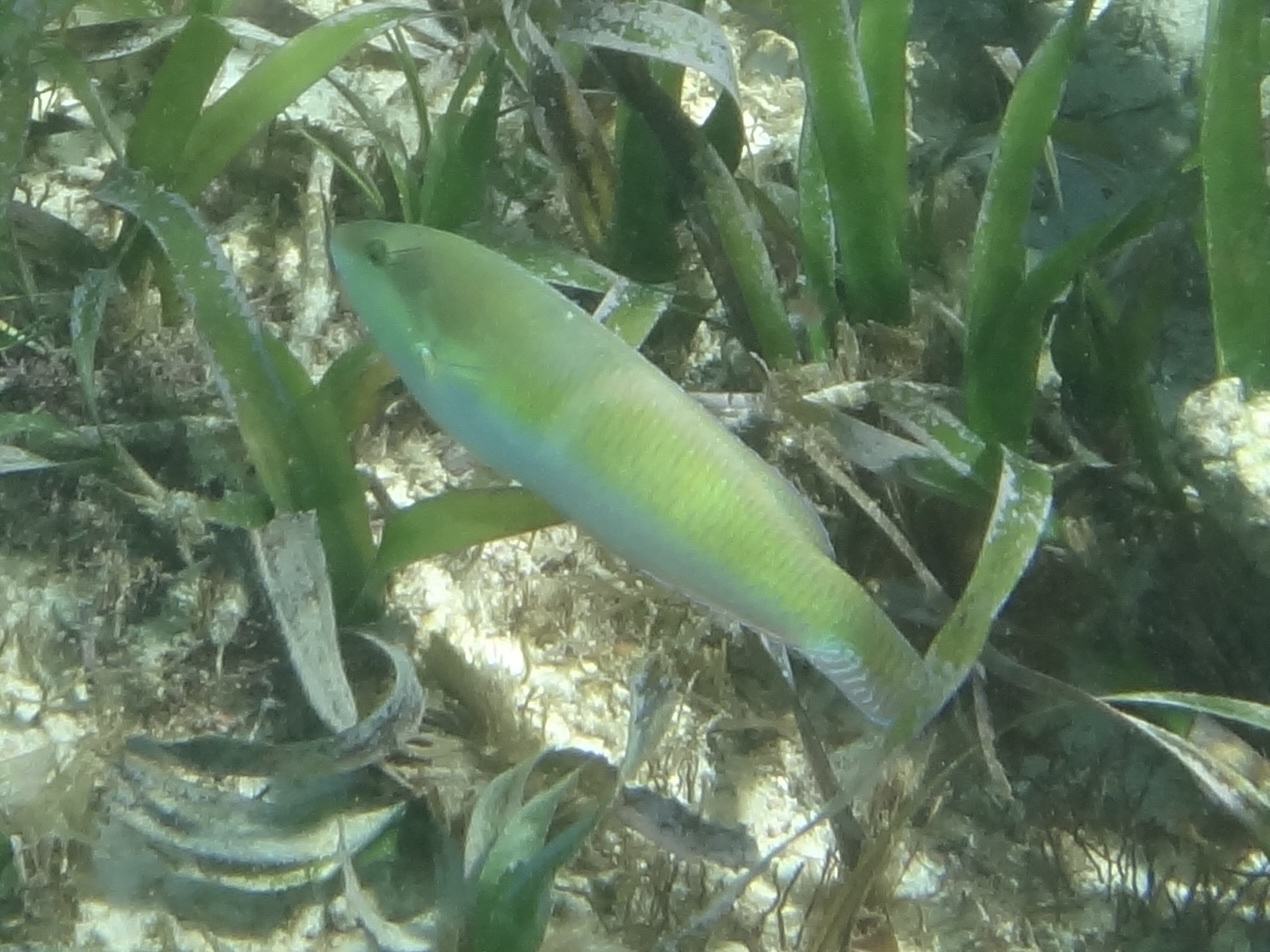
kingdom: Animalia
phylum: Chordata
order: Perciformes
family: Labridae
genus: Halichoeres
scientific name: Halichoeres garnoti
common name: Yellowhead wrasse
